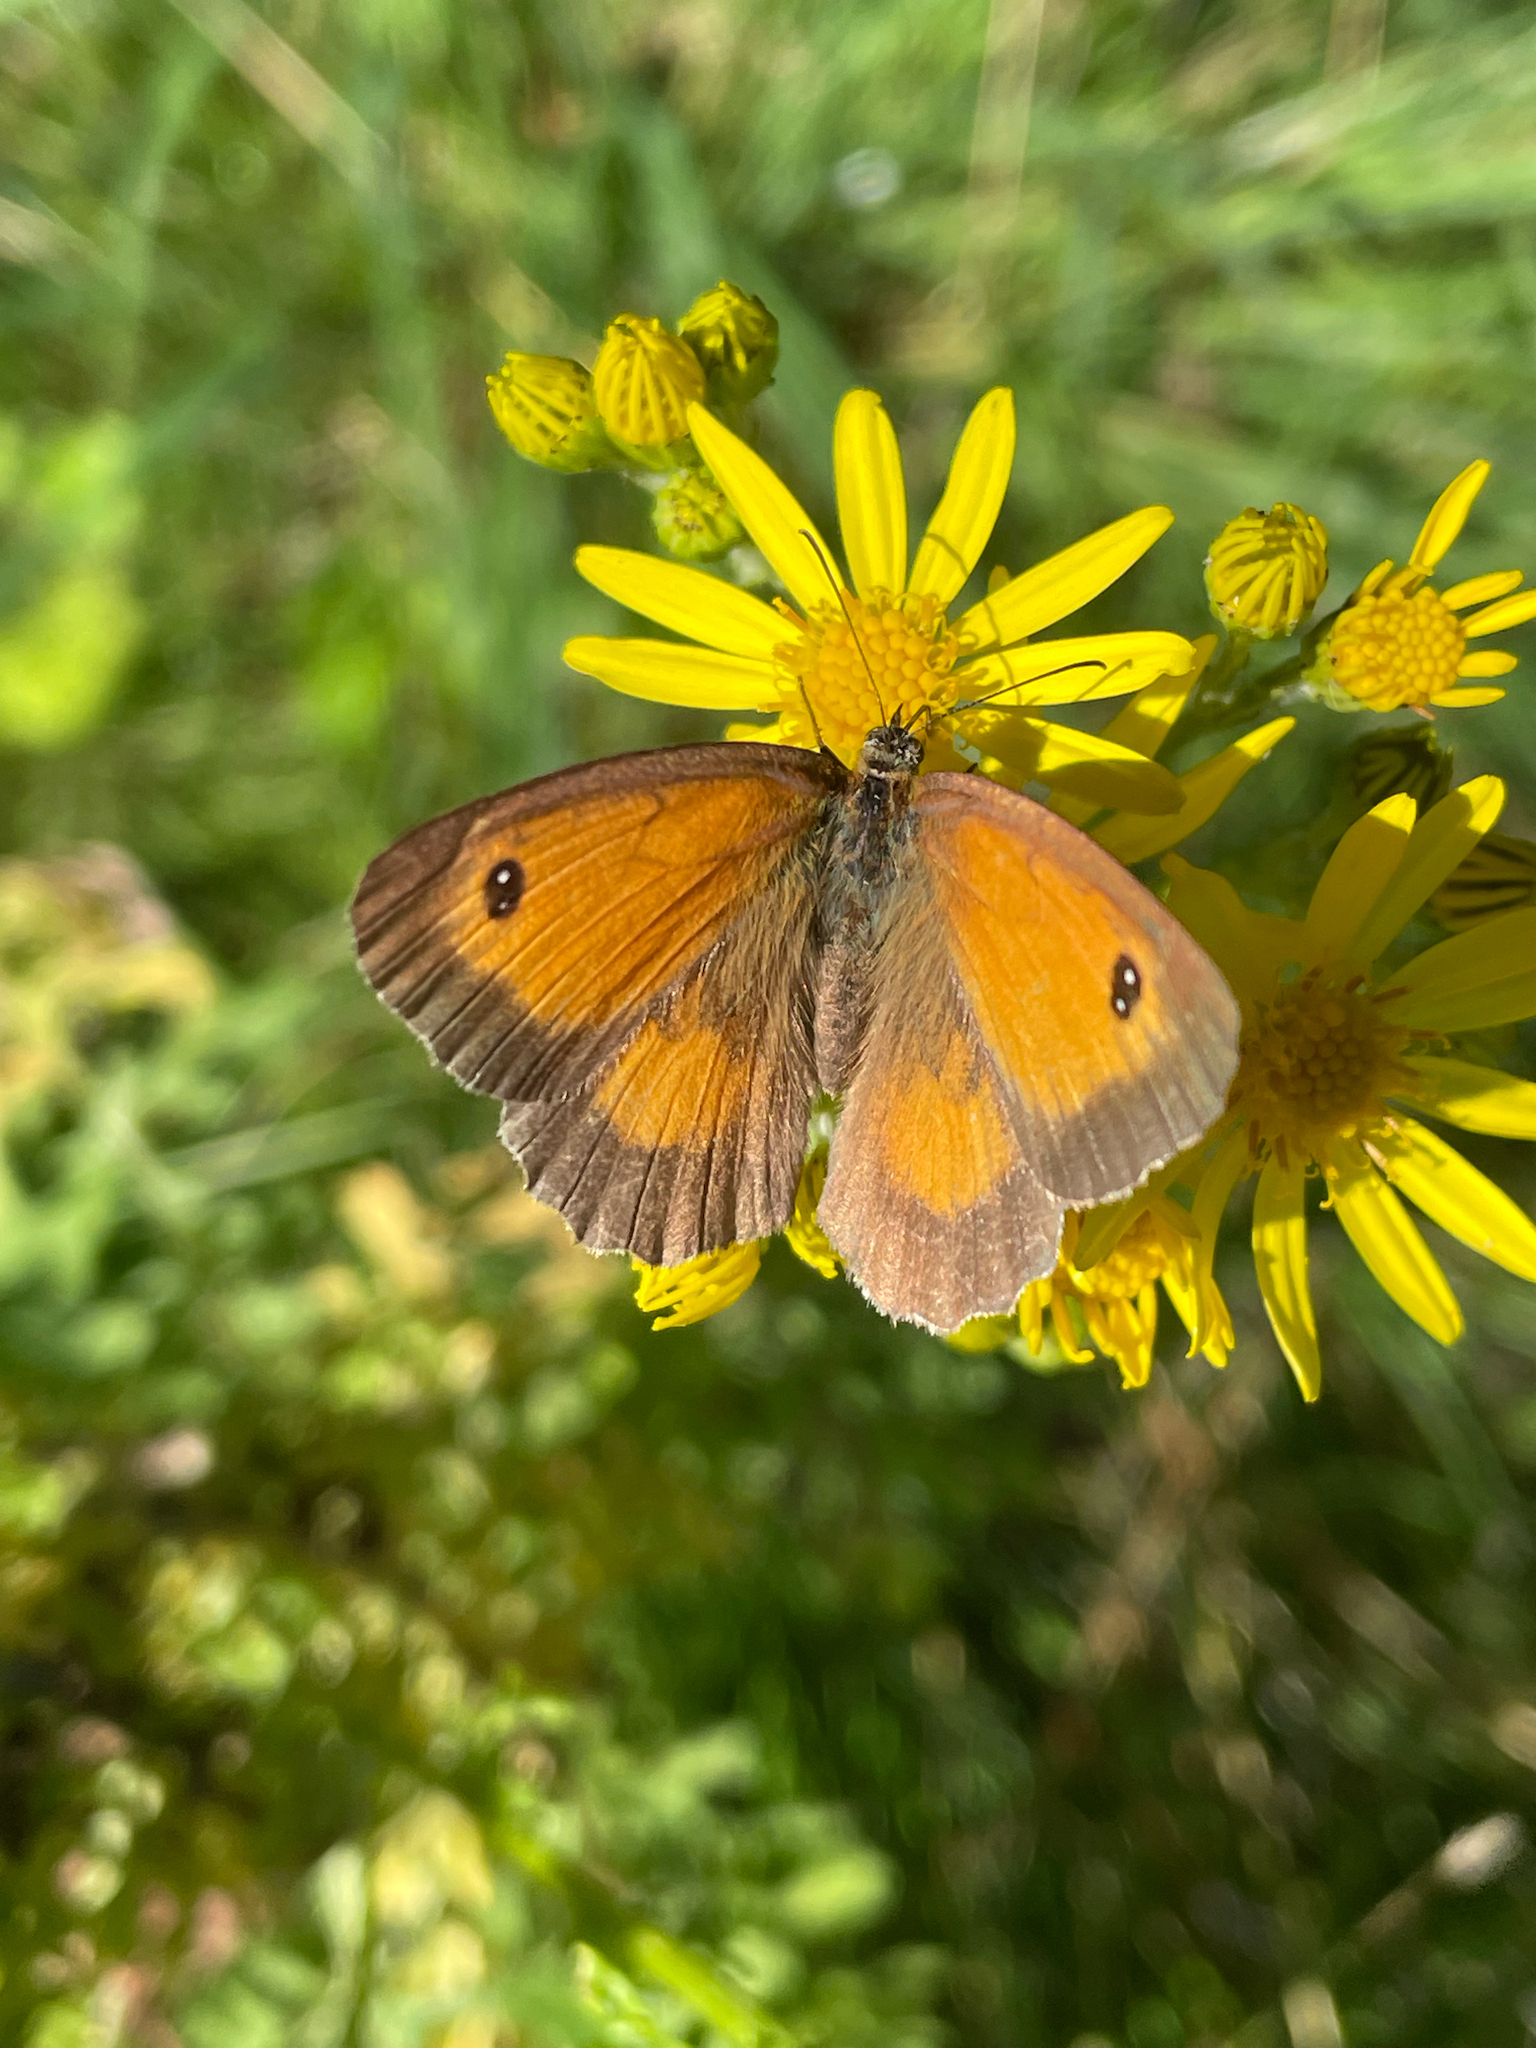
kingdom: Animalia
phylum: Arthropoda
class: Insecta
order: Lepidoptera
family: Nymphalidae
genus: Pyronia
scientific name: Pyronia tithonus
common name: Gatekeeper
